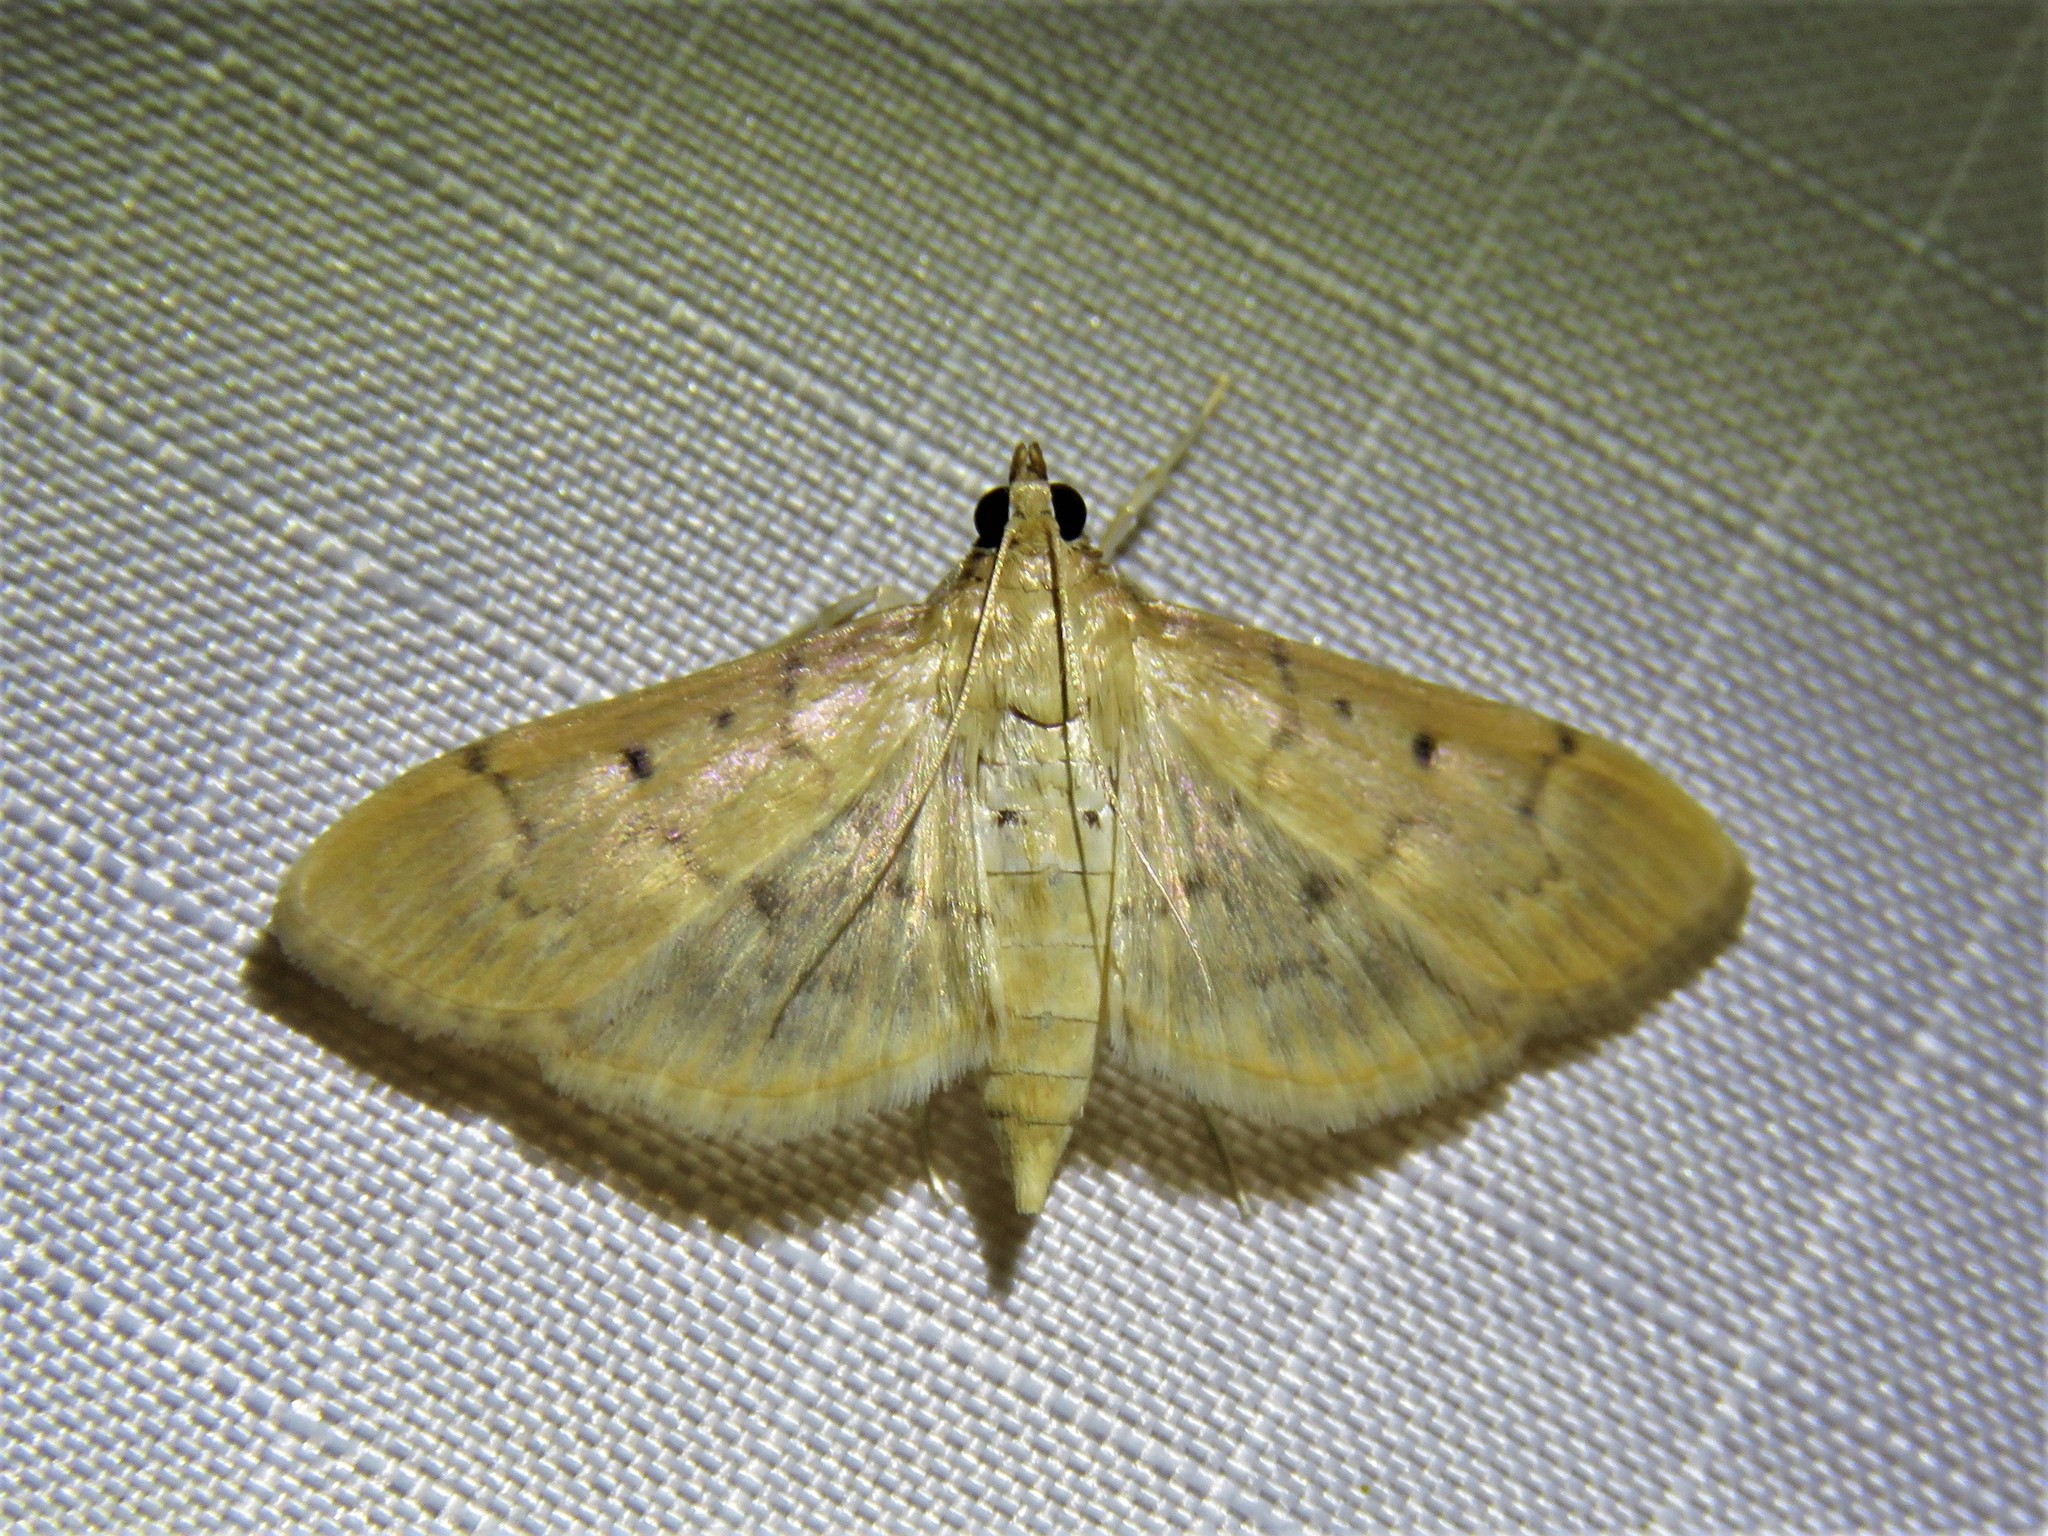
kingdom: Animalia
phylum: Arthropoda
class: Insecta
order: Lepidoptera
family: Crambidae
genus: Herpetogramma
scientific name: Herpetogramma bipunctalis
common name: Southern beet webworm
